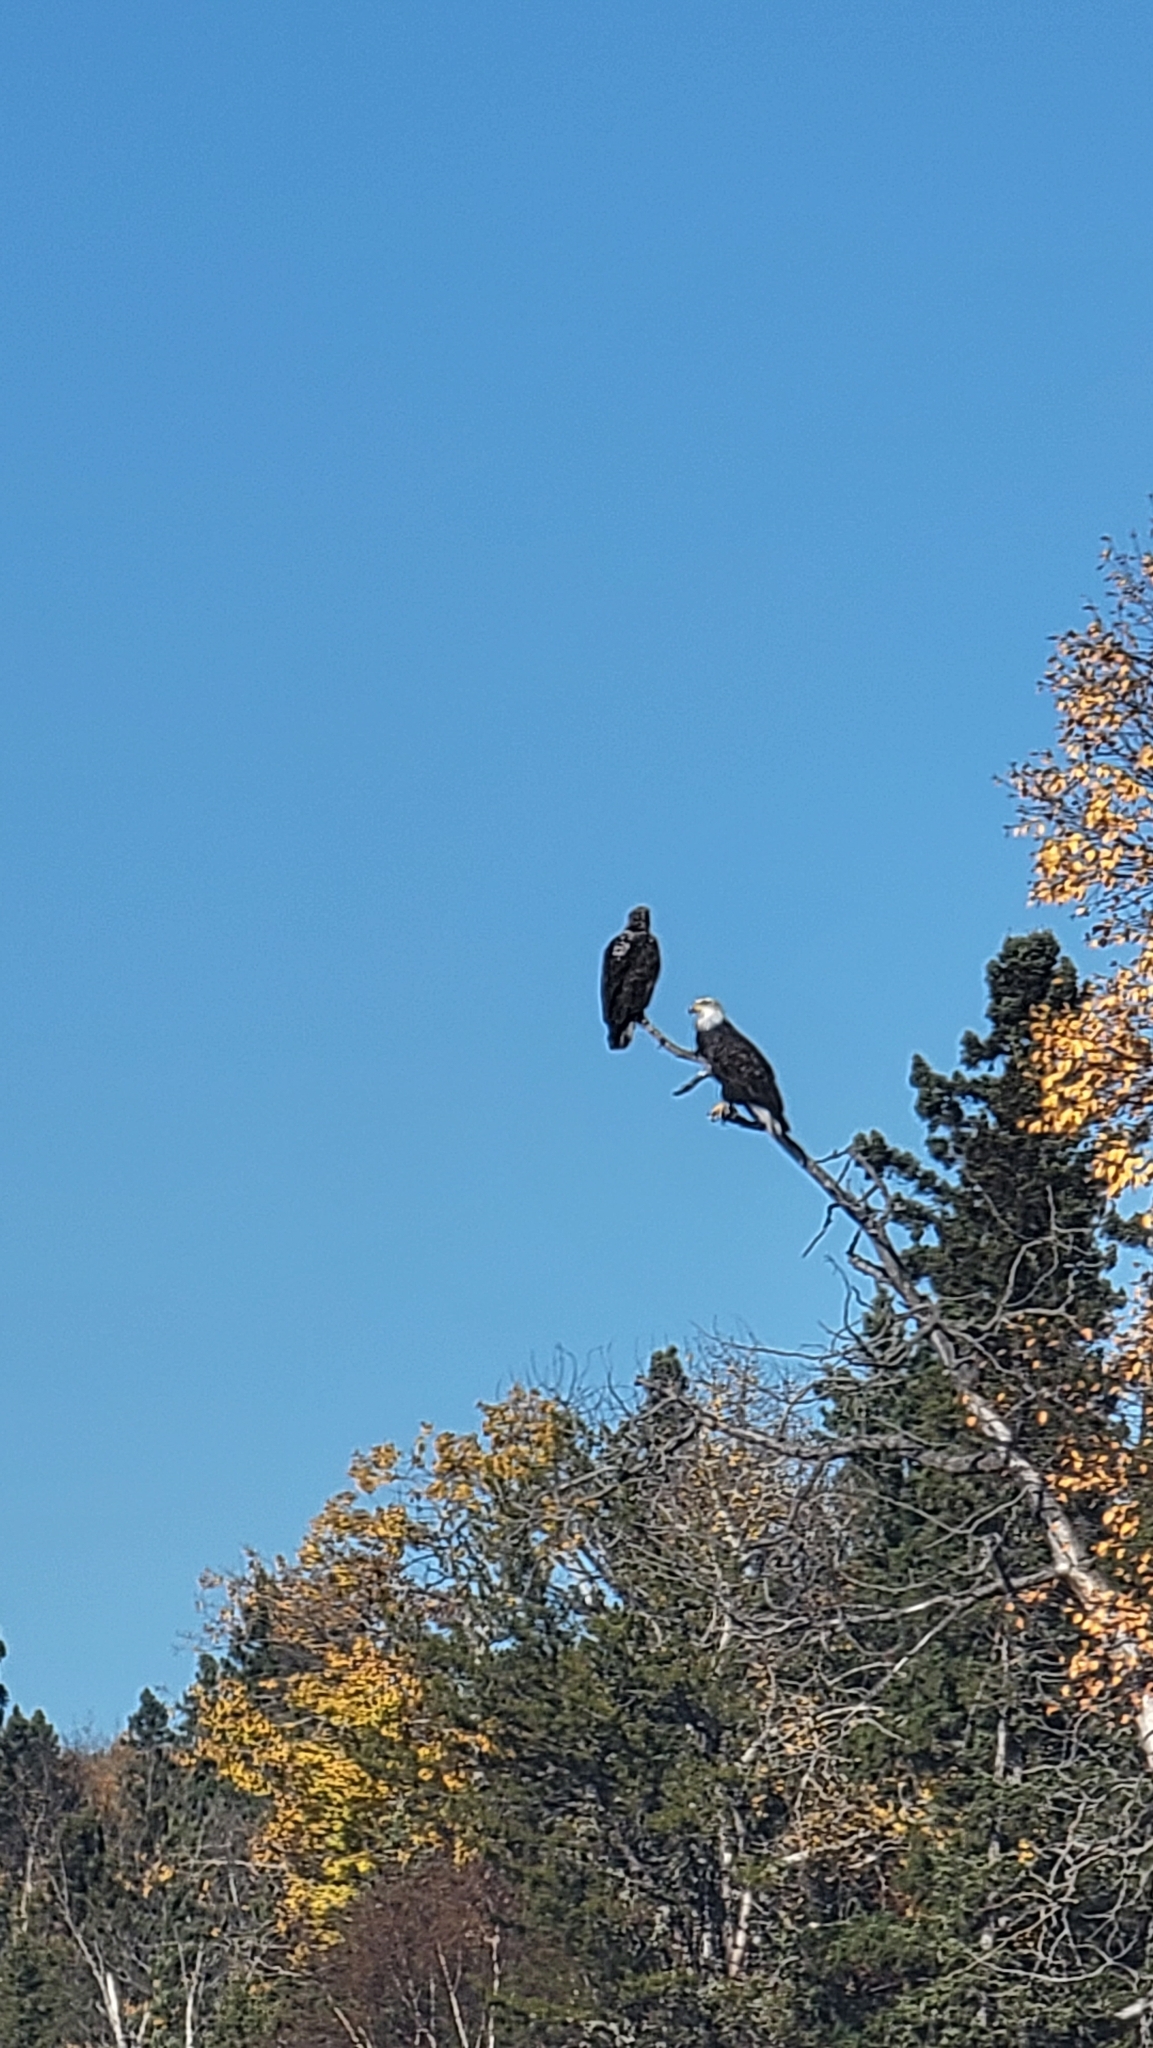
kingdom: Animalia
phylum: Chordata
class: Aves
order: Accipitriformes
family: Accipitridae
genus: Haliaeetus
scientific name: Haliaeetus leucocephalus
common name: Bald eagle
